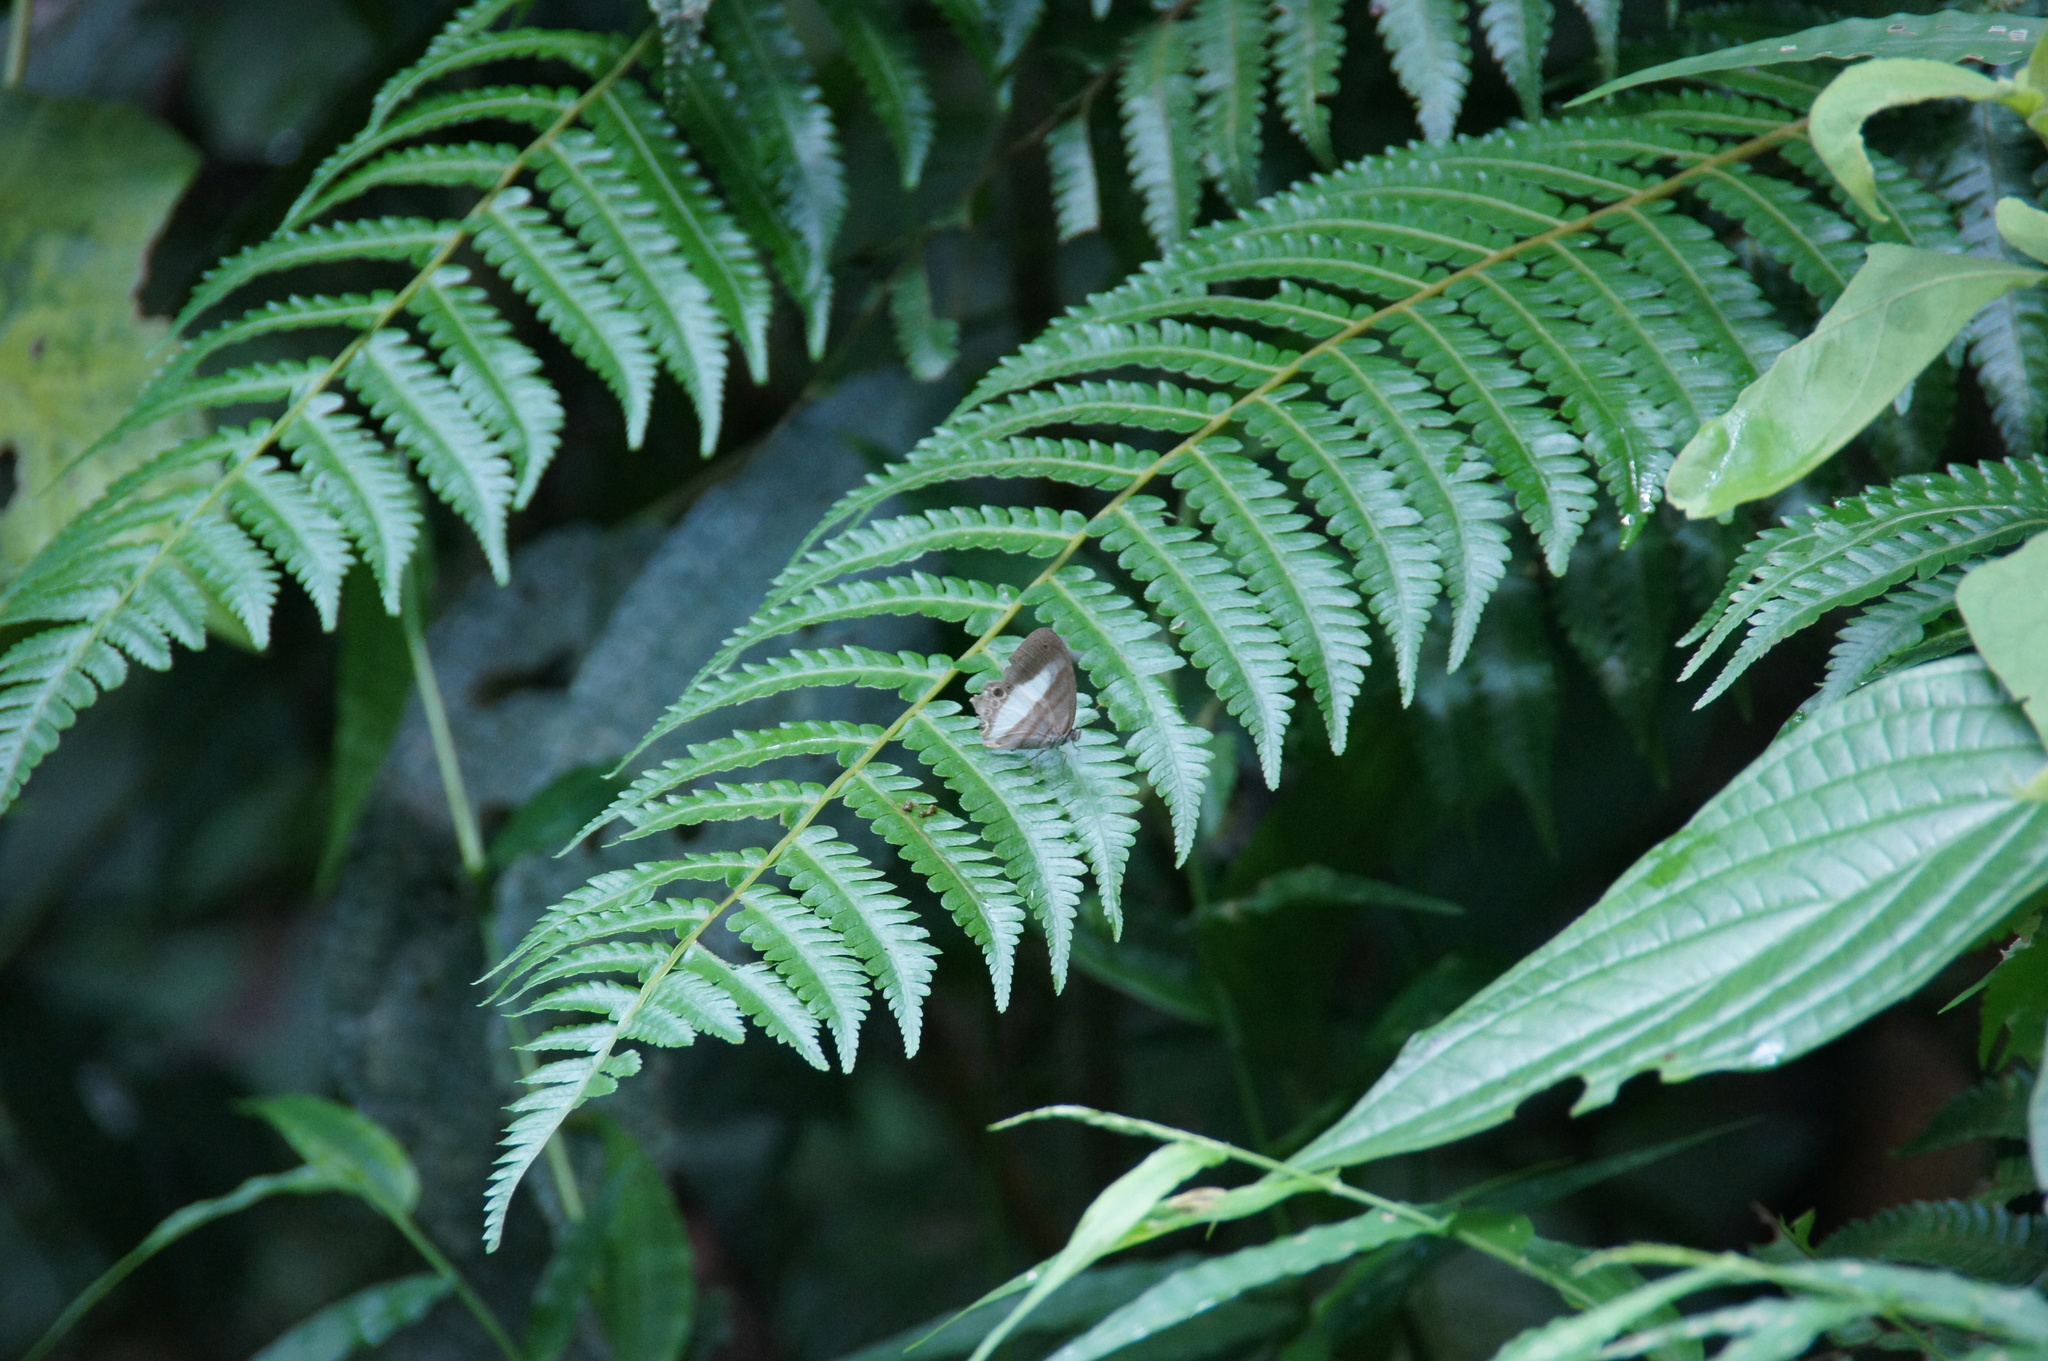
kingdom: Animalia
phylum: Arthropoda
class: Insecta
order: Lepidoptera
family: Nymphalidae
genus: Pareuptychia
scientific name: Pareuptychia metaleuca
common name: White-banded satyr
